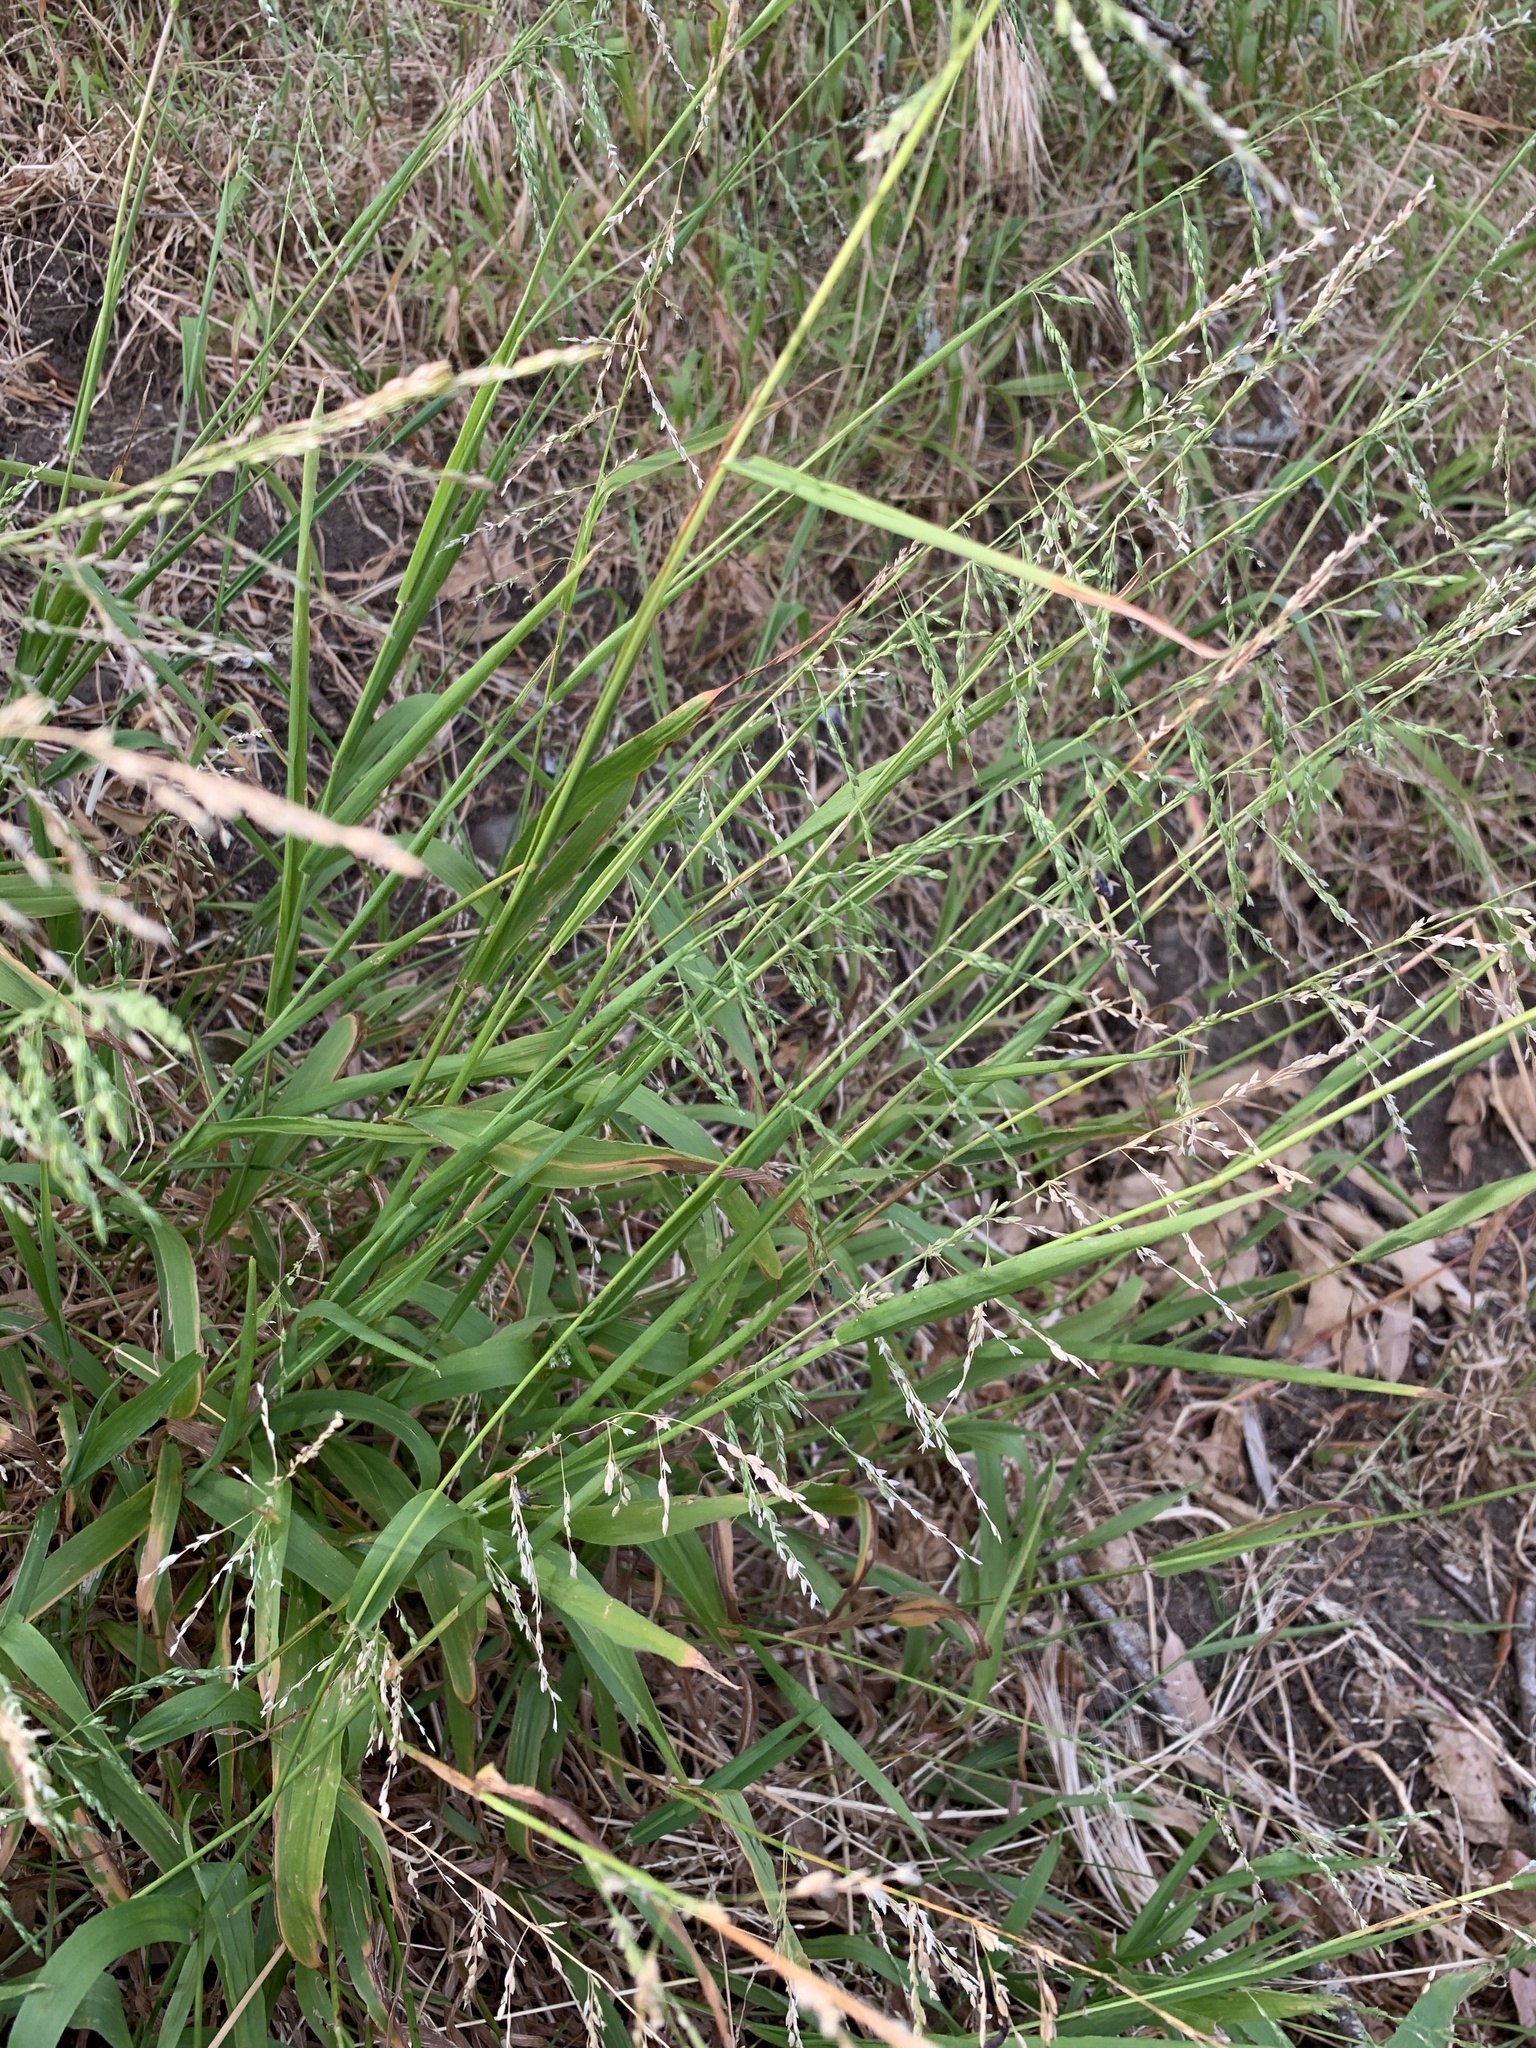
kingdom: Plantae
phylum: Tracheophyta
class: Liliopsida
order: Poales
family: Poaceae
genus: Ehrharta
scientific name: Ehrharta erecta
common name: Panic veldtgrass
